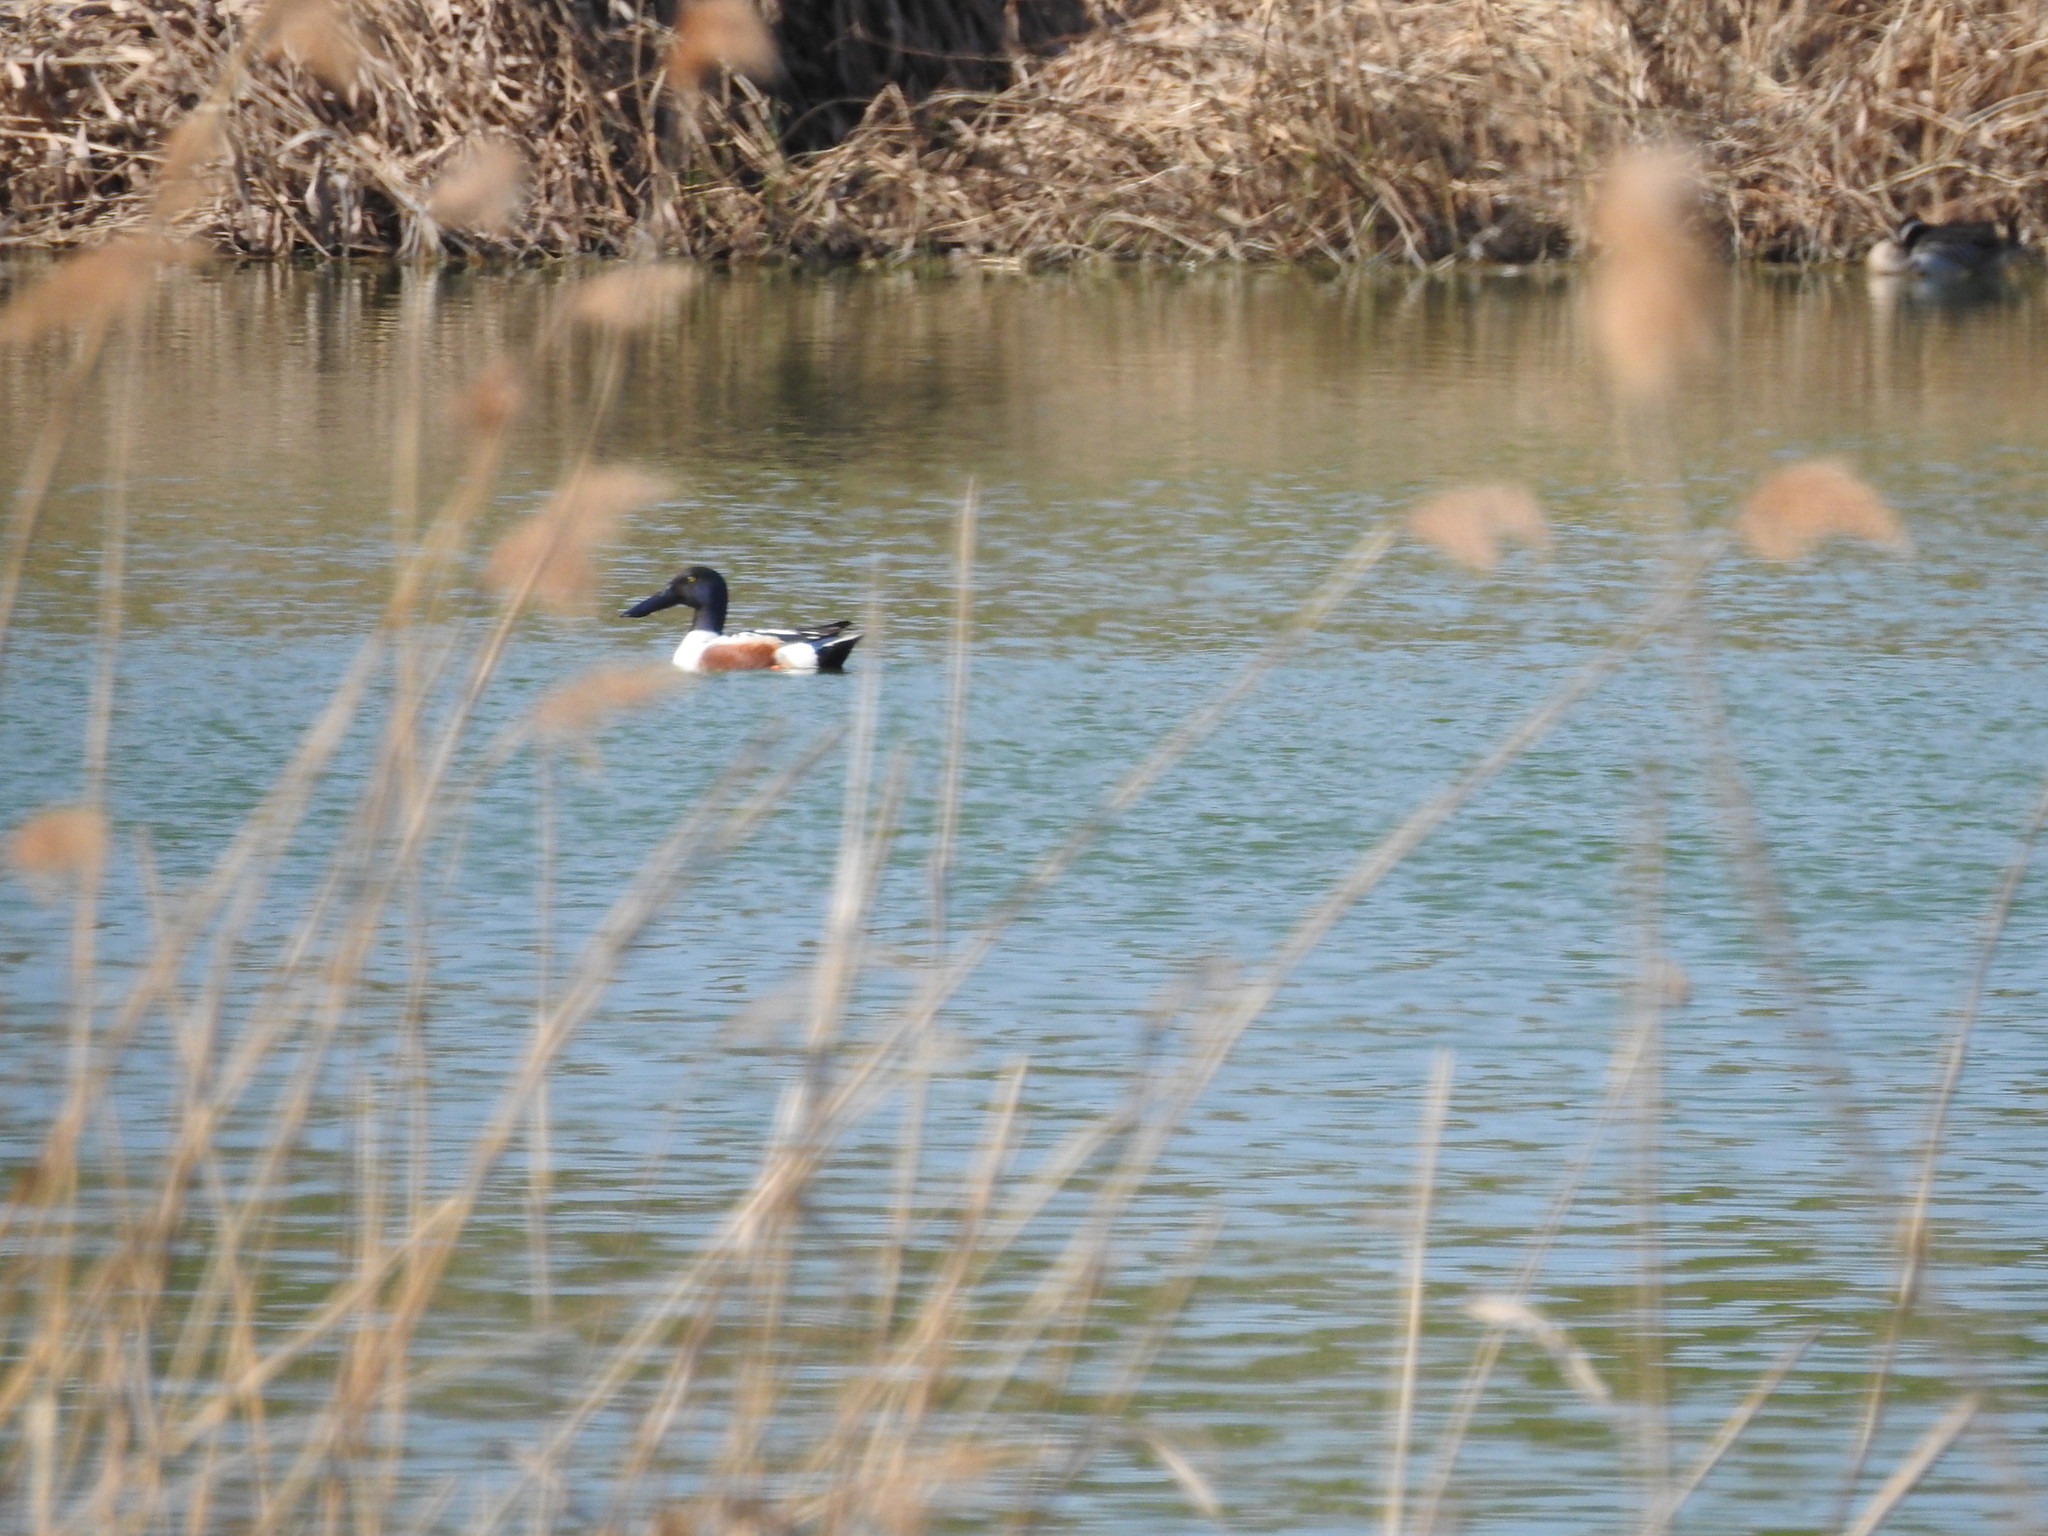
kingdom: Animalia
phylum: Chordata
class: Aves
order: Anseriformes
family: Anatidae
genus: Spatula
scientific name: Spatula clypeata
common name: Northern shoveler
